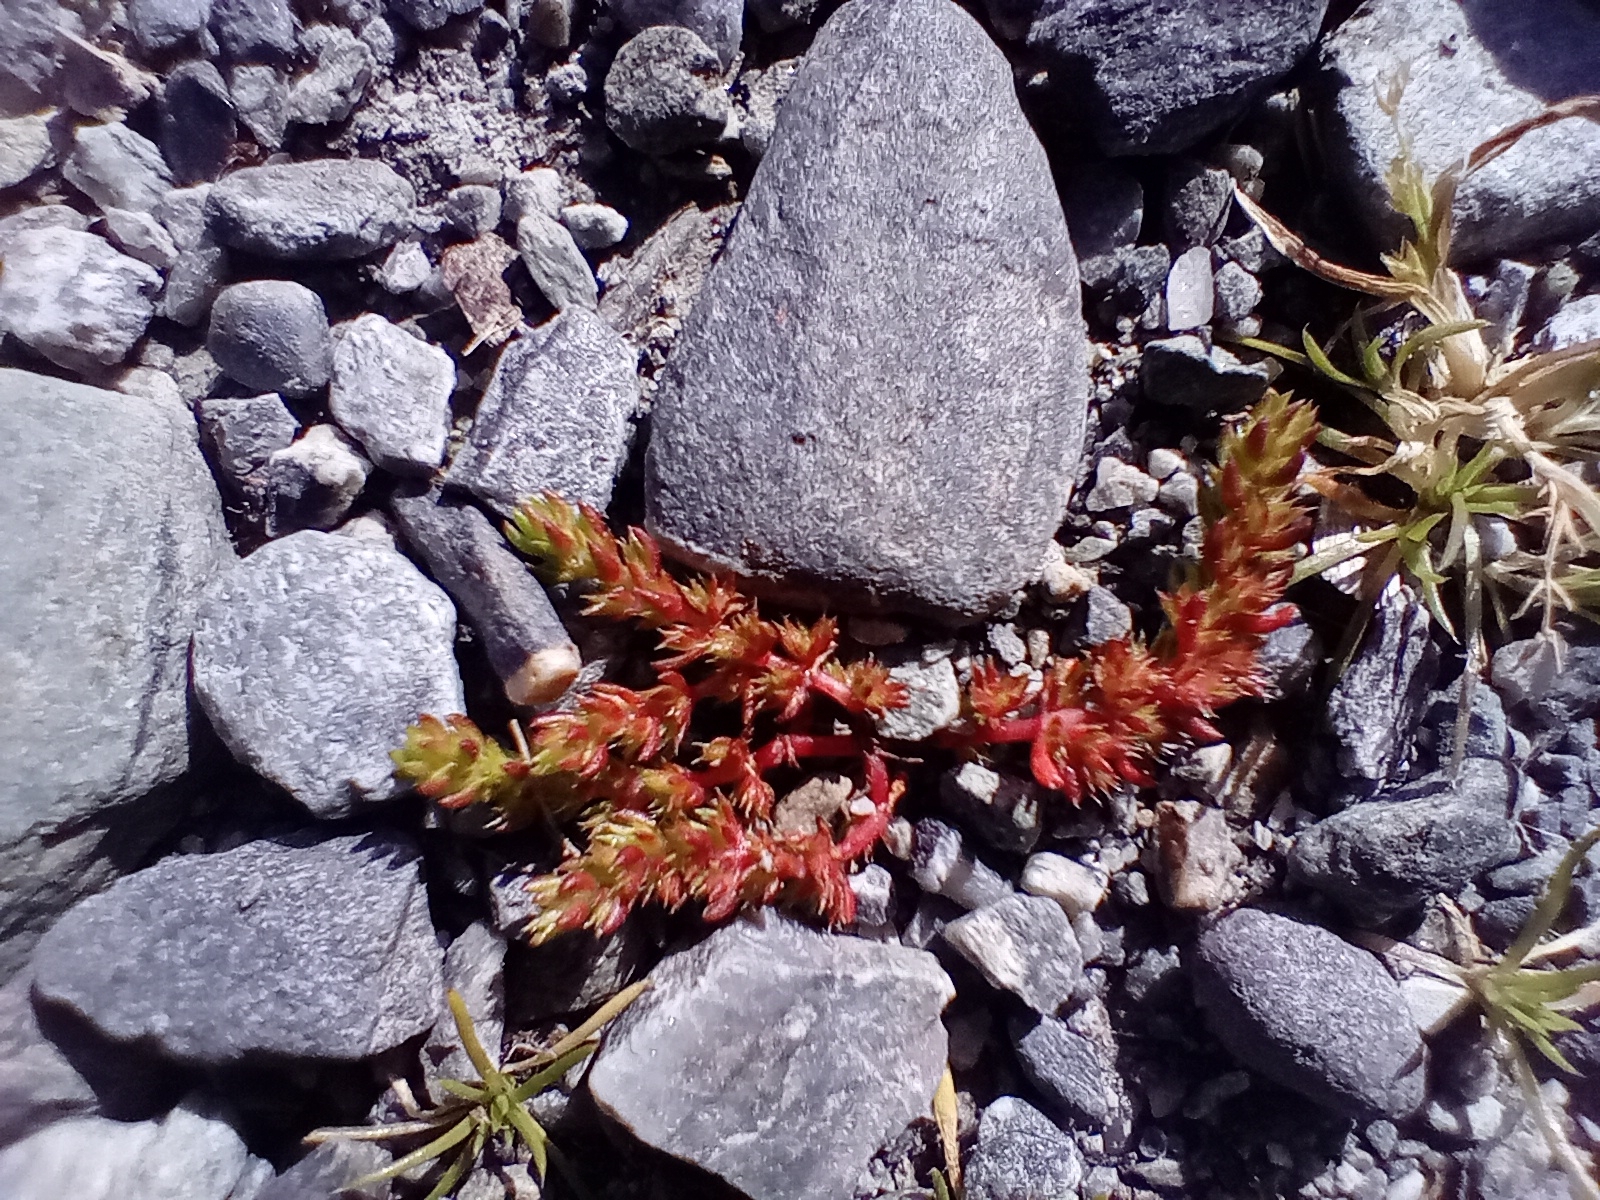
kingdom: Plantae
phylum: Tracheophyta
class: Magnoliopsida
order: Saxifragales
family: Crassulaceae
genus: Crassula
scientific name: Crassula alata
